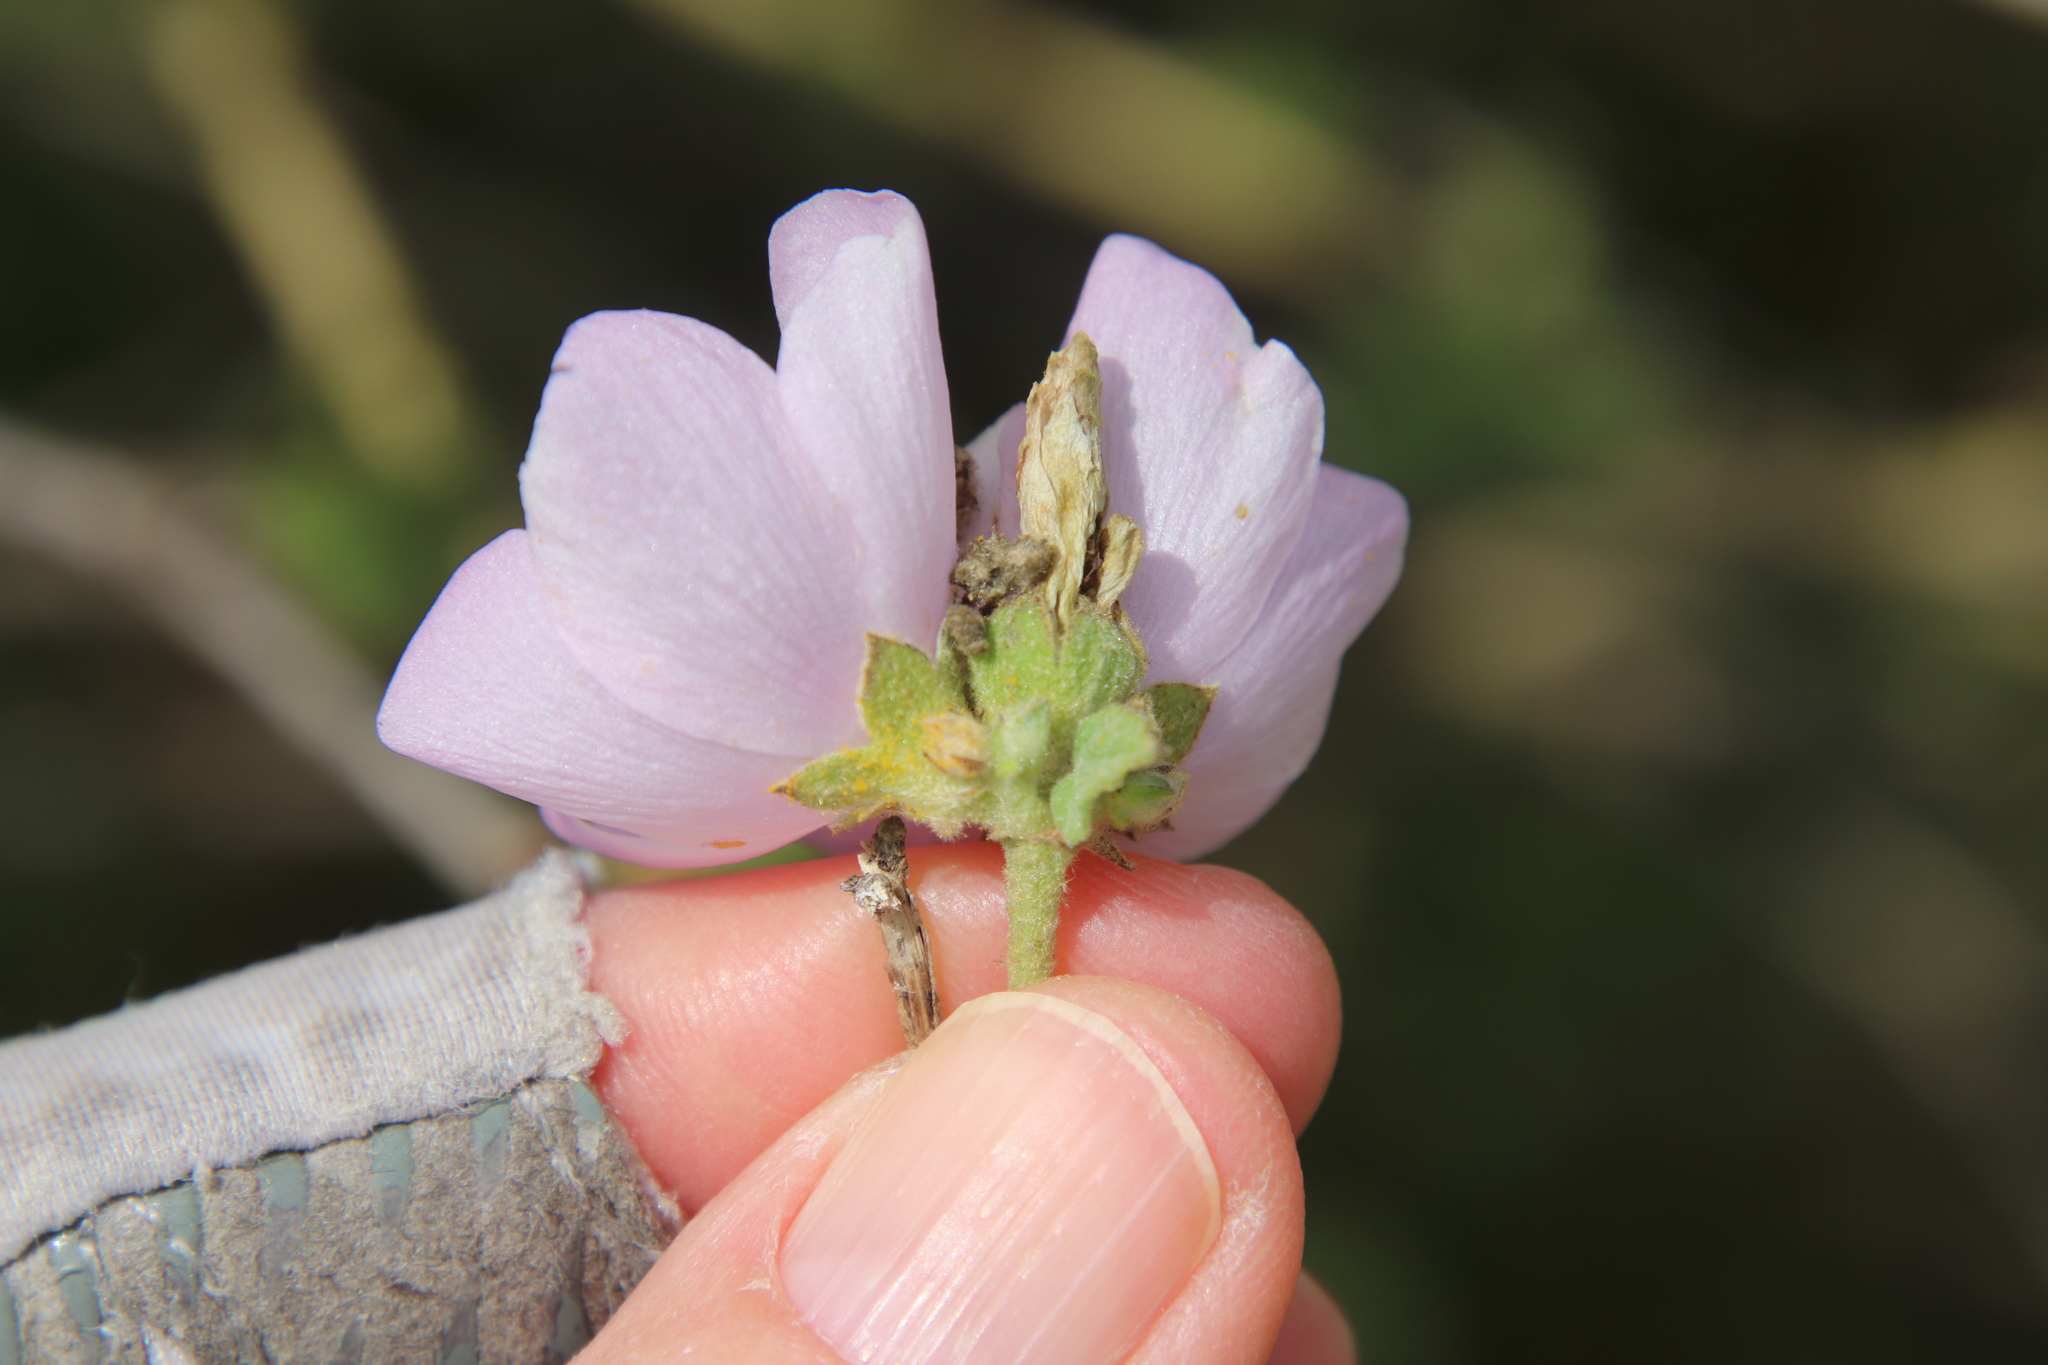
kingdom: Plantae
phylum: Tracheophyta
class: Magnoliopsida
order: Malvales
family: Malvaceae
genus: Malacothamnus
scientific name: Malacothamnus fasciculatus
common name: Sant cruz island bush-mallow
